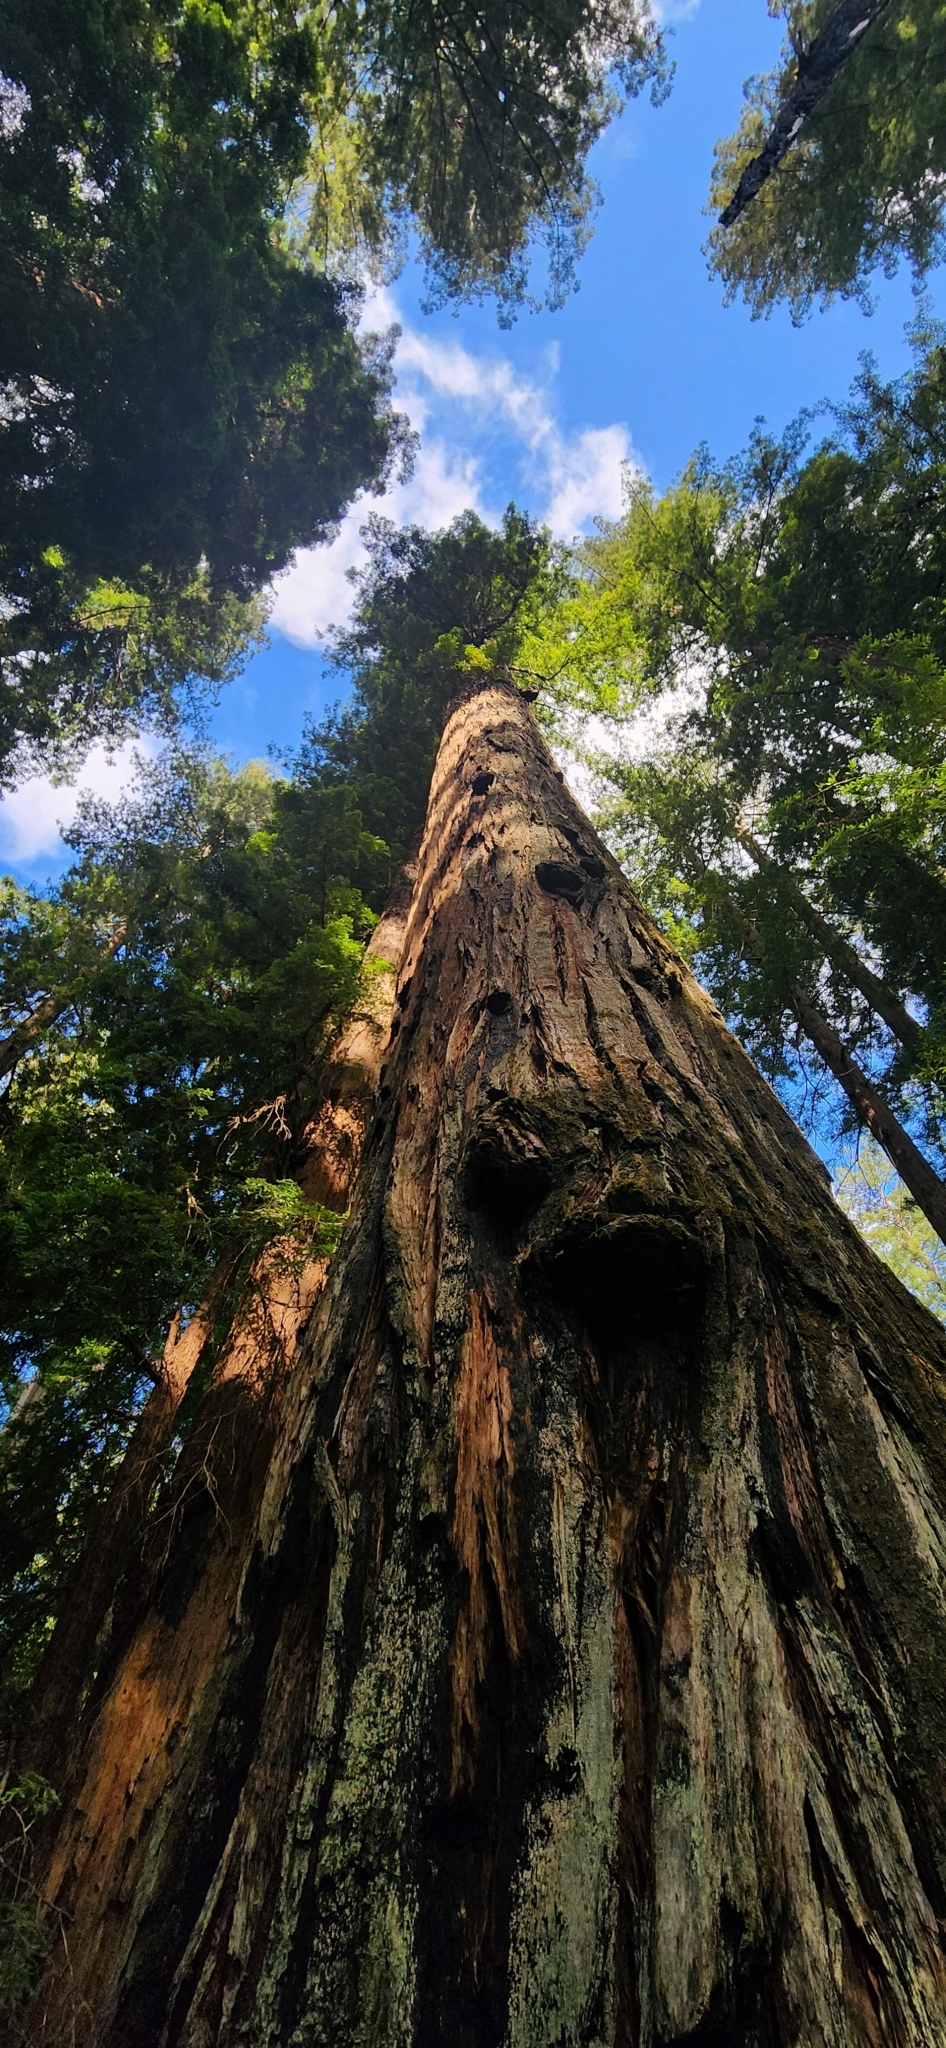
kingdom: Plantae
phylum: Tracheophyta
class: Pinopsida
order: Pinales
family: Cupressaceae
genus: Sequoia
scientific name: Sequoia sempervirens
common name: Coast redwood
